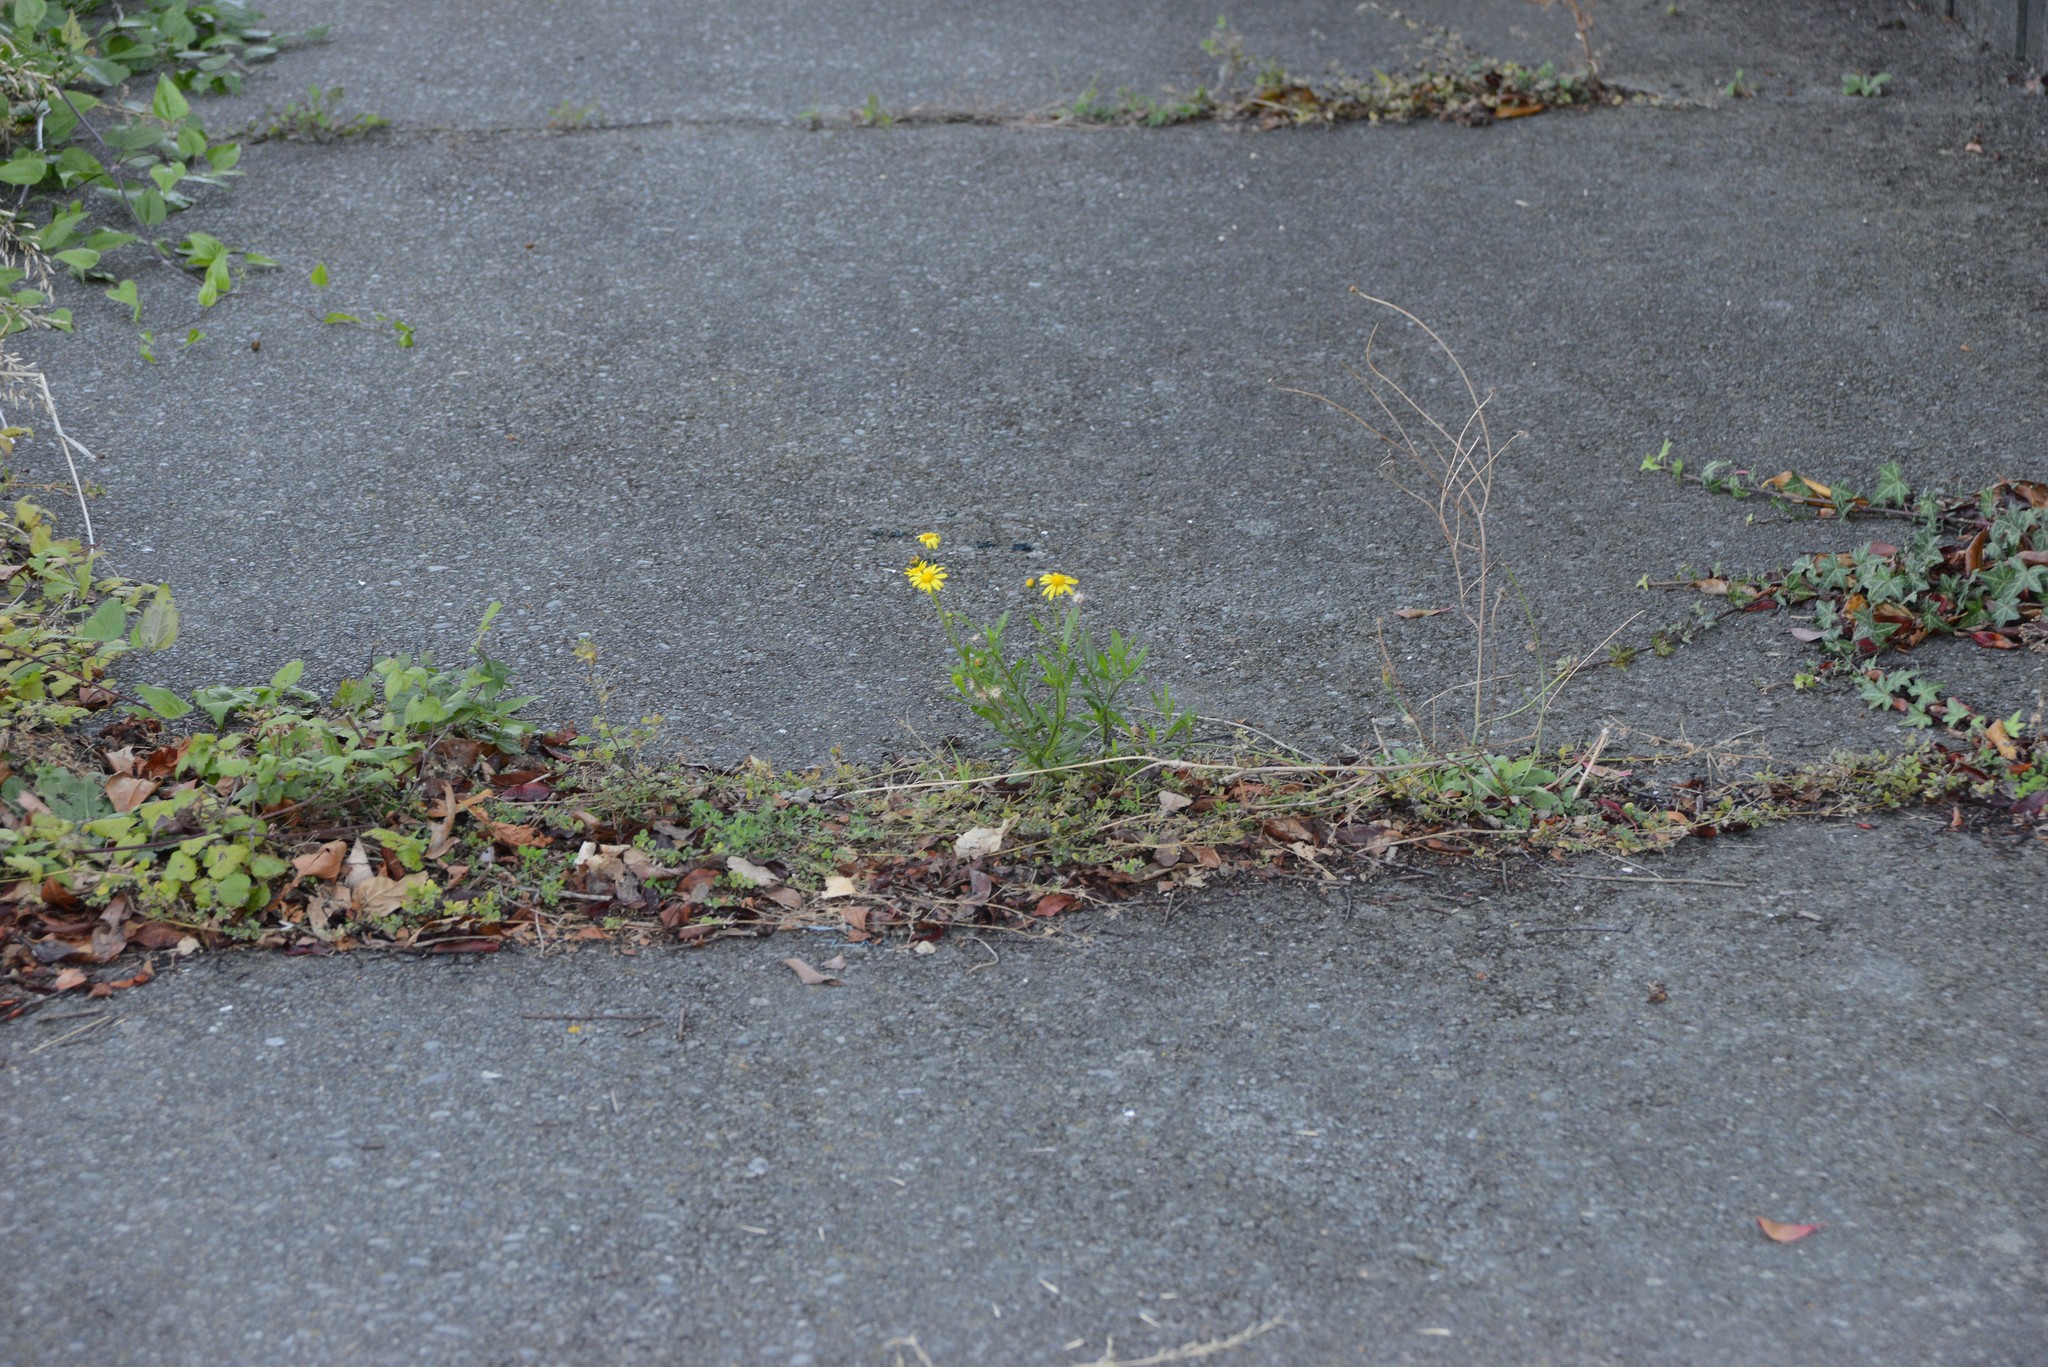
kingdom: Plantae
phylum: Tracheophyta
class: Magnoliopsida
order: Asterales
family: Asteraceae
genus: Senecio
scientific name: Senecio skirrhodon
